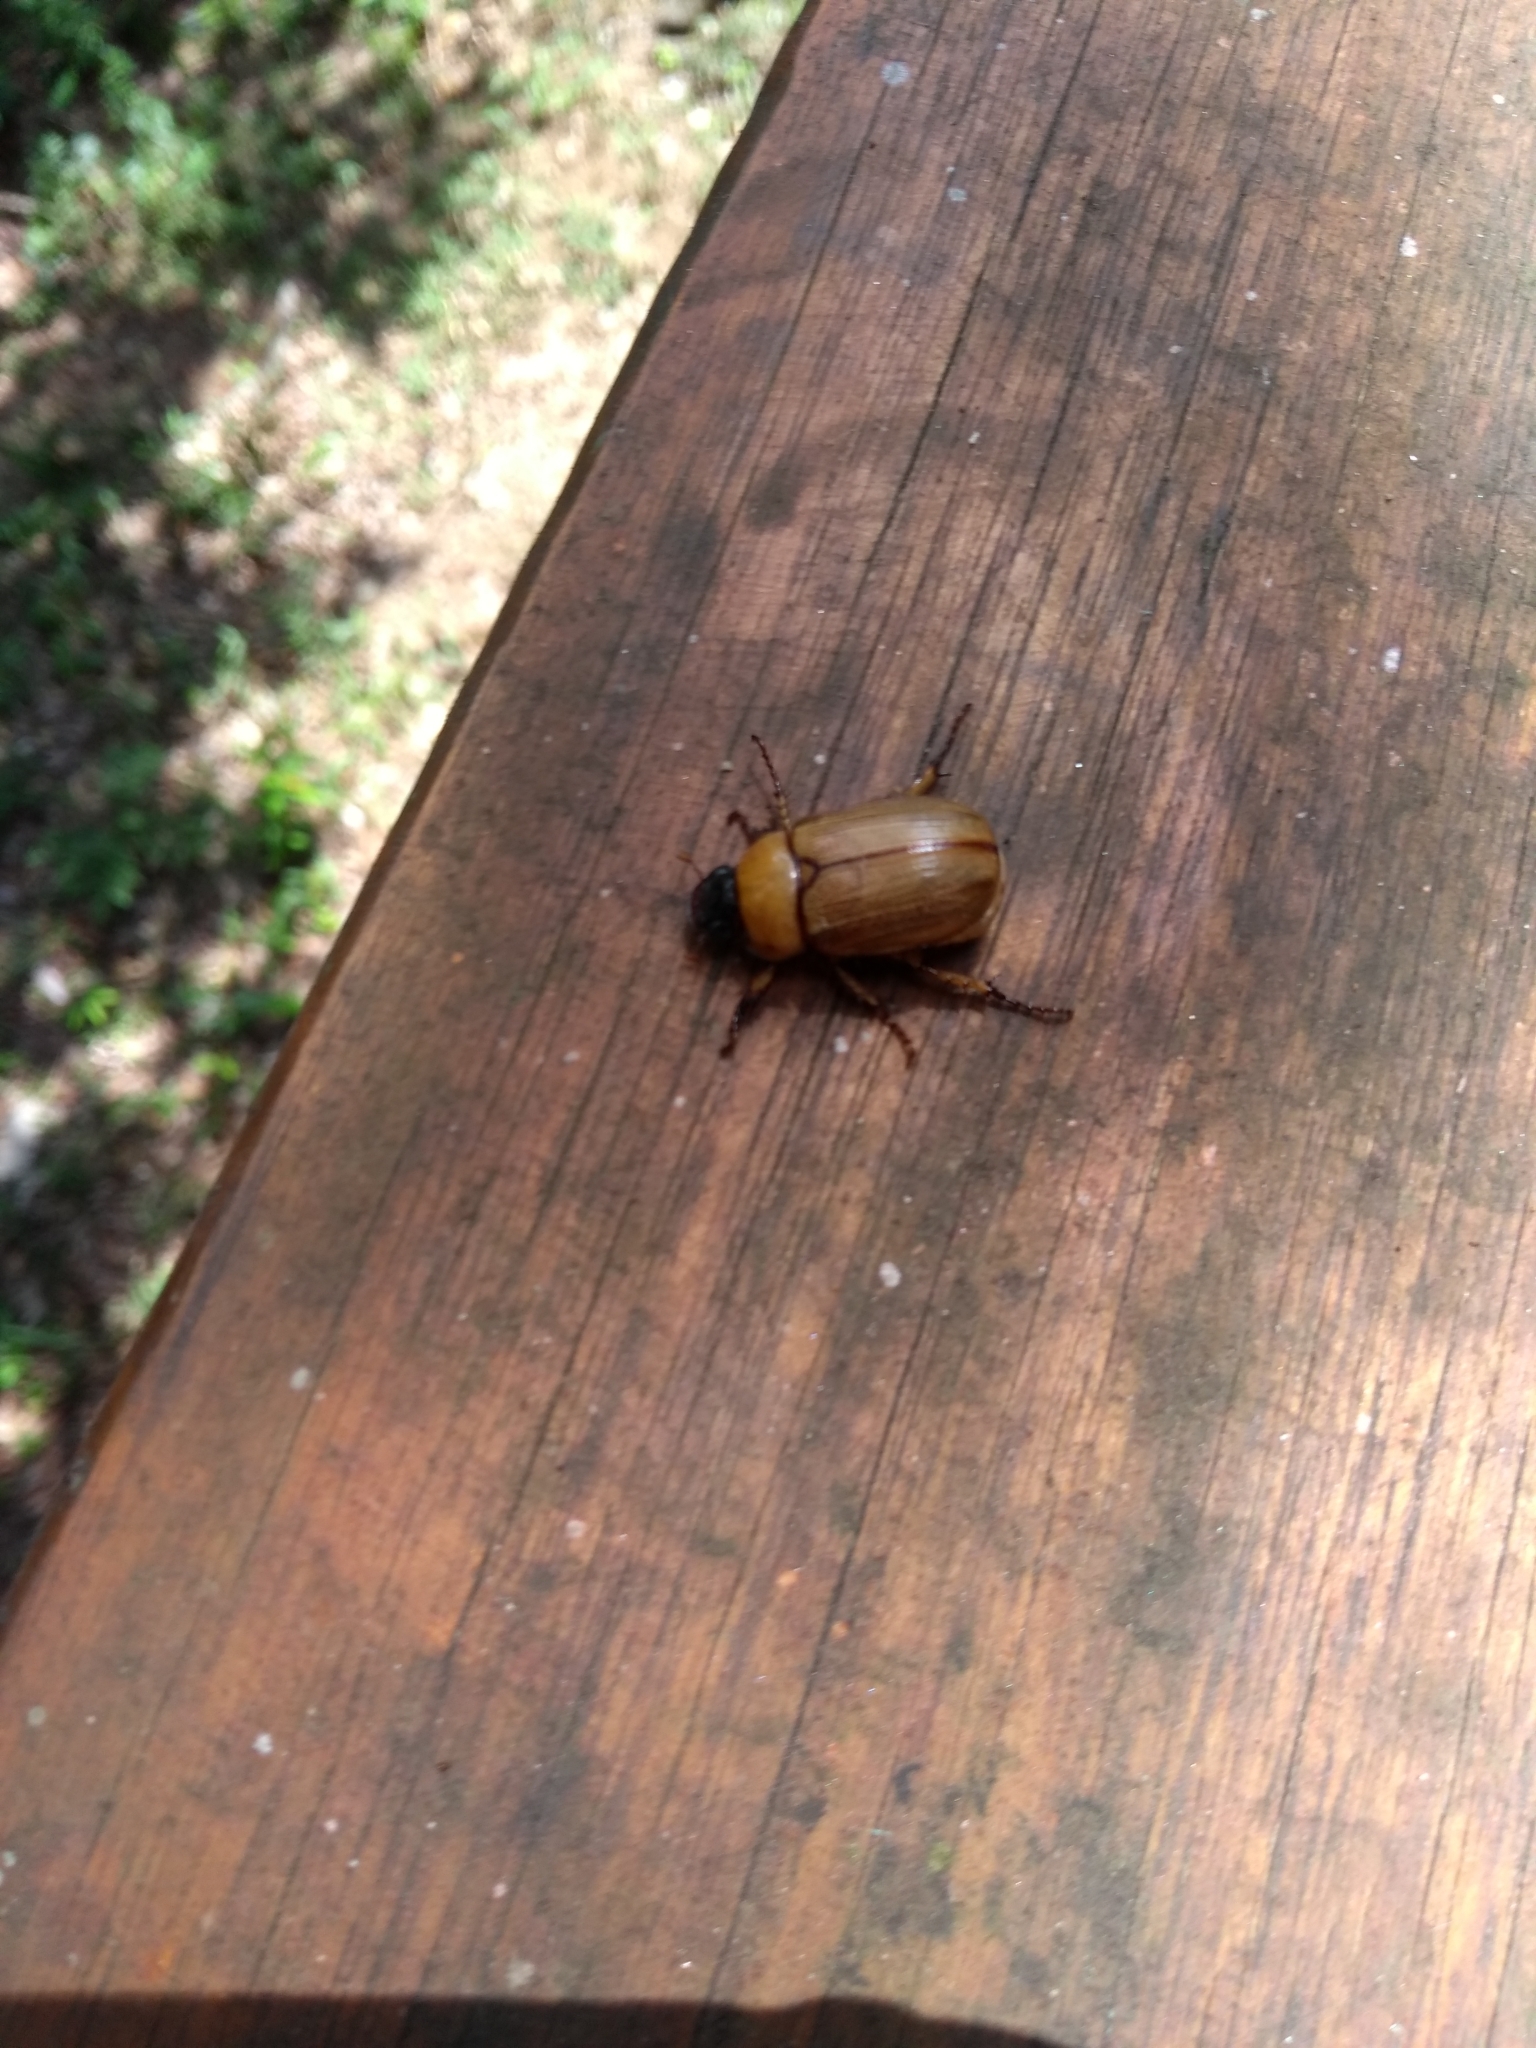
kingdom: Animalia
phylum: Arthropoda
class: Insecta
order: Coleoptera
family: Scarabaeidae
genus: Geniates
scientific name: Geniates barbatus
